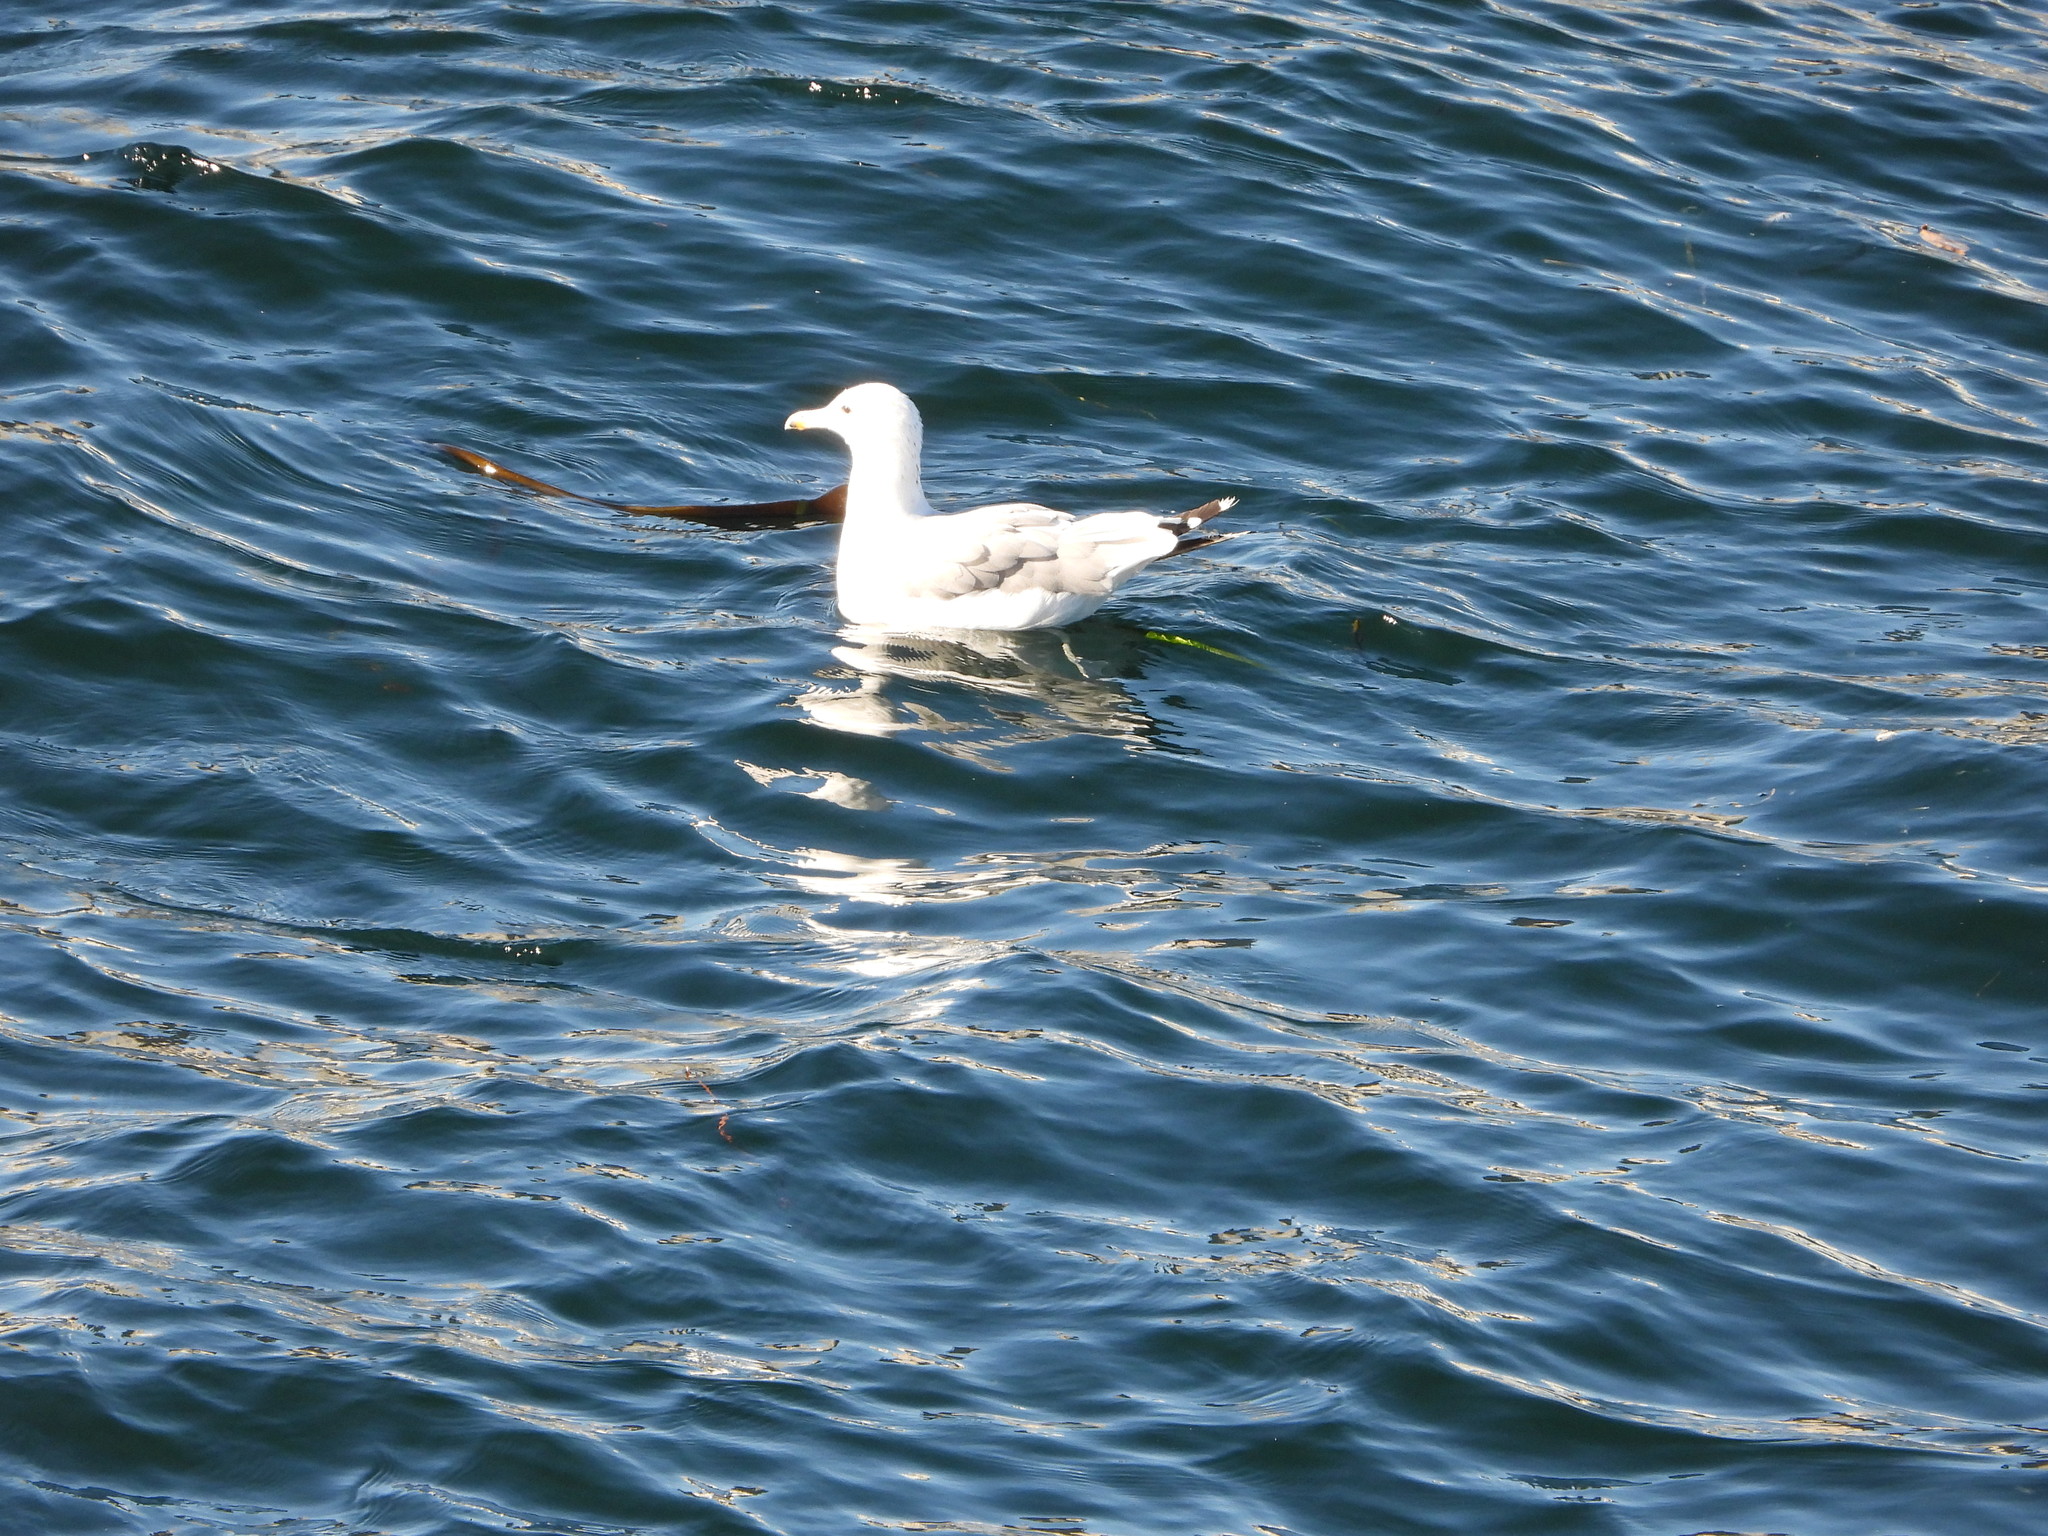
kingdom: Animalia
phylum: Chordata
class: Aves
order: Charadriiformes
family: Laridae
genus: Larus
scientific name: Larus californicus
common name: California gull
